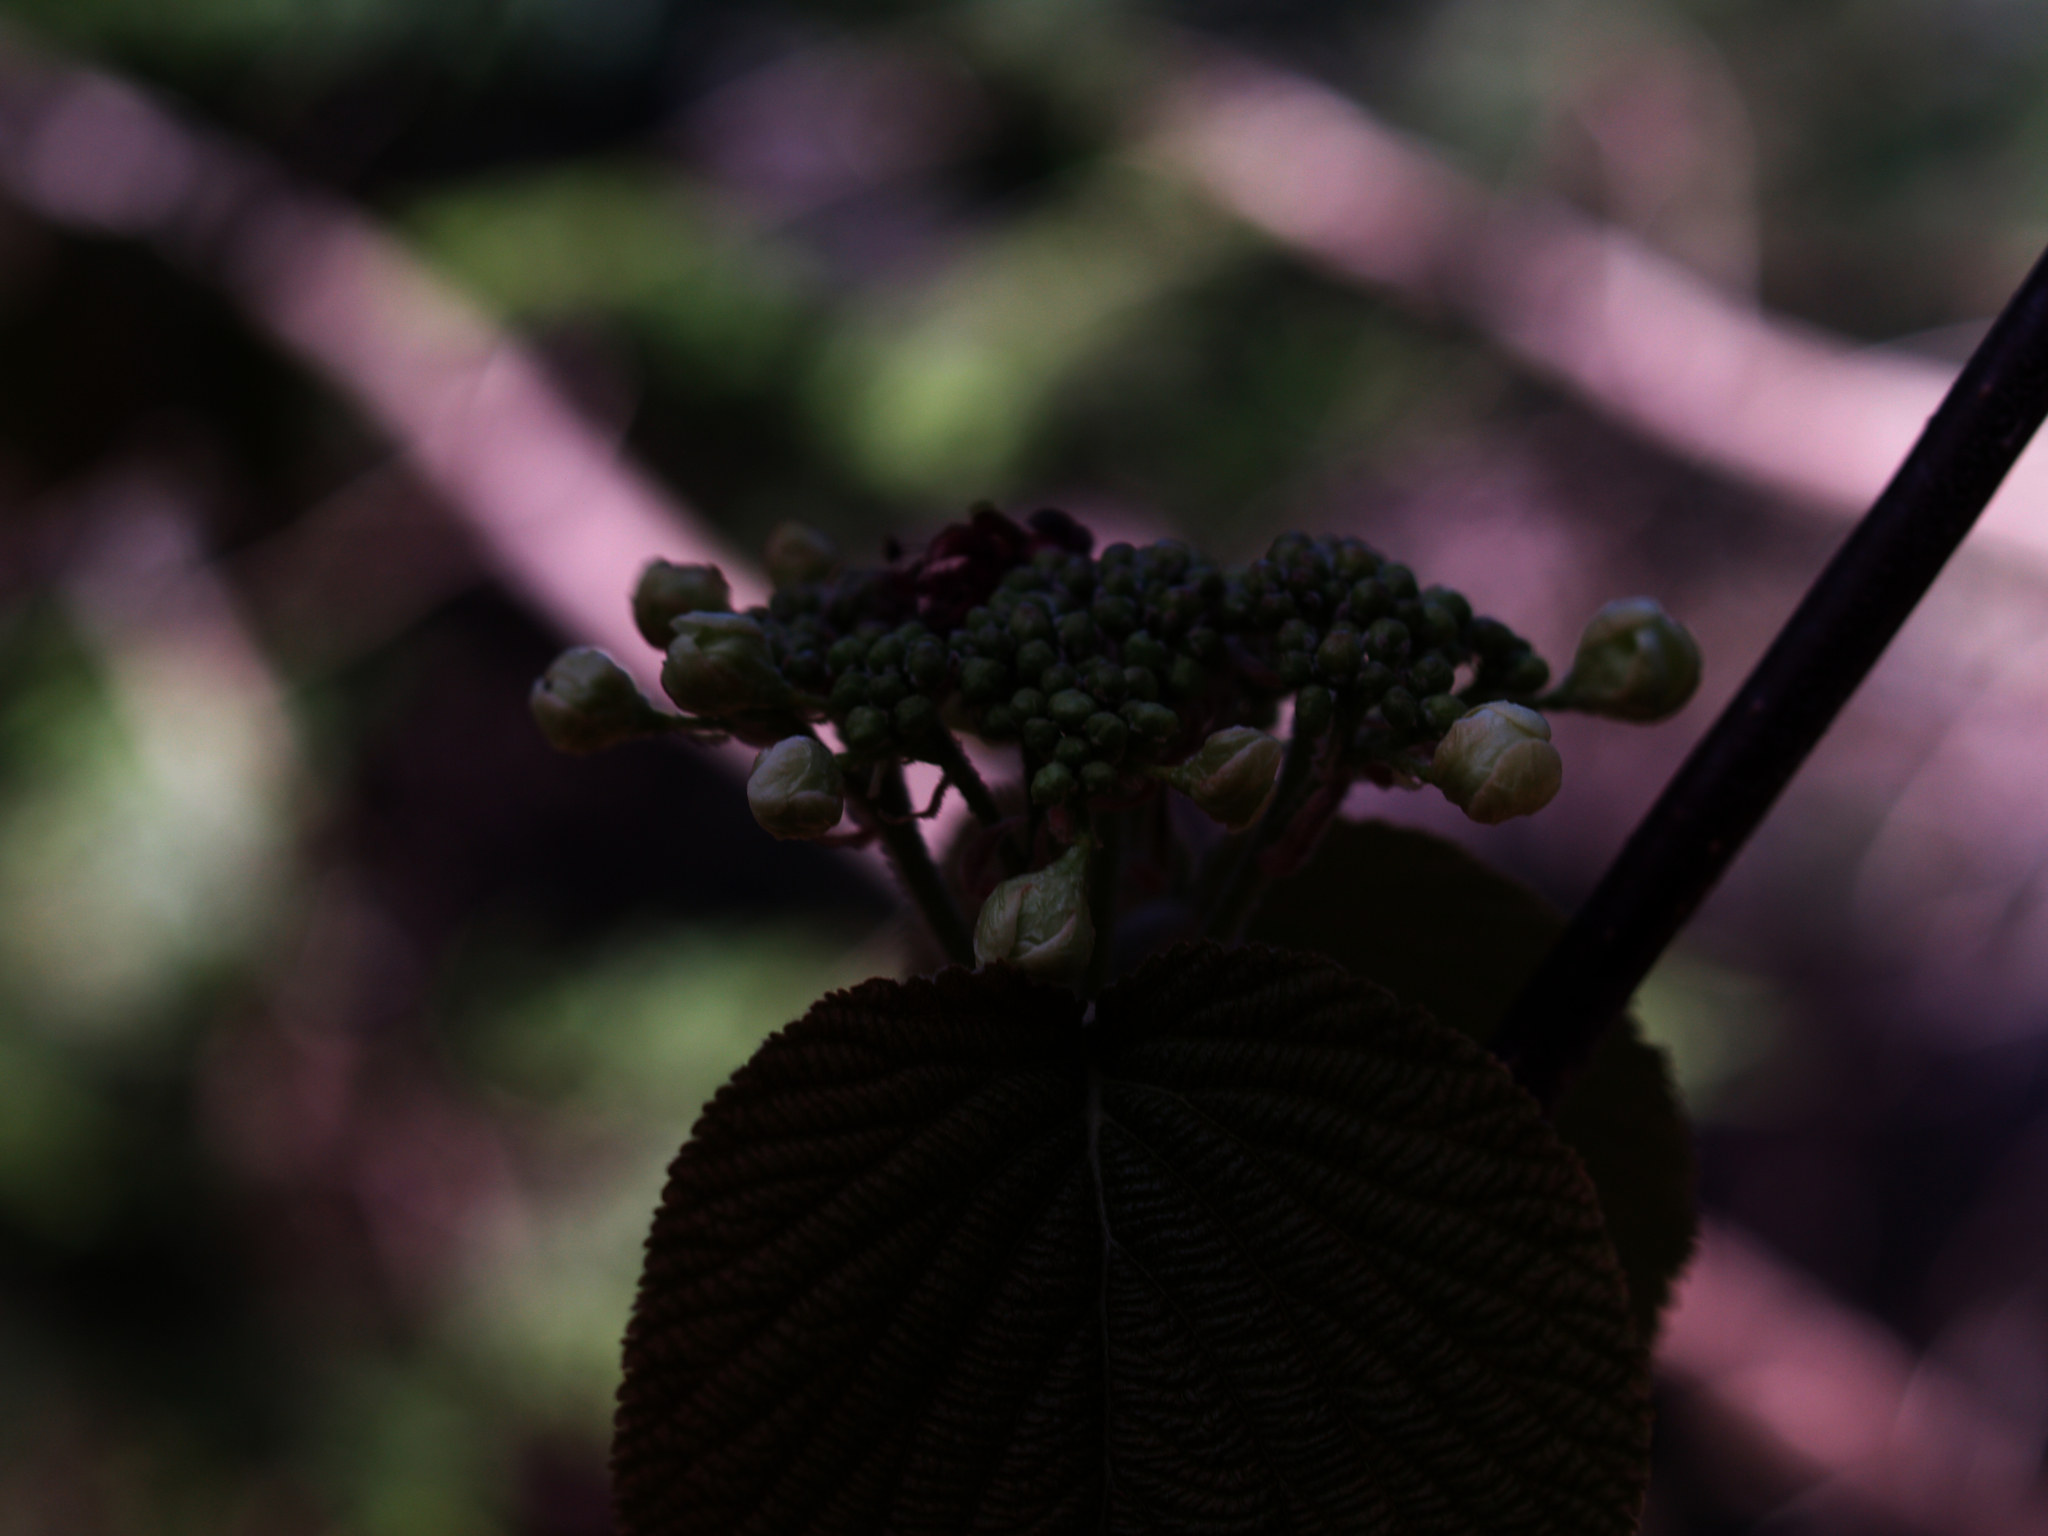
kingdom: Plantae
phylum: Tracheophyta
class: Magnoliopsida
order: Dipsacales
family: Viburnaceae
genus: Viburnum
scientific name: Viburnum lantanoides
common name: Hobblebush
